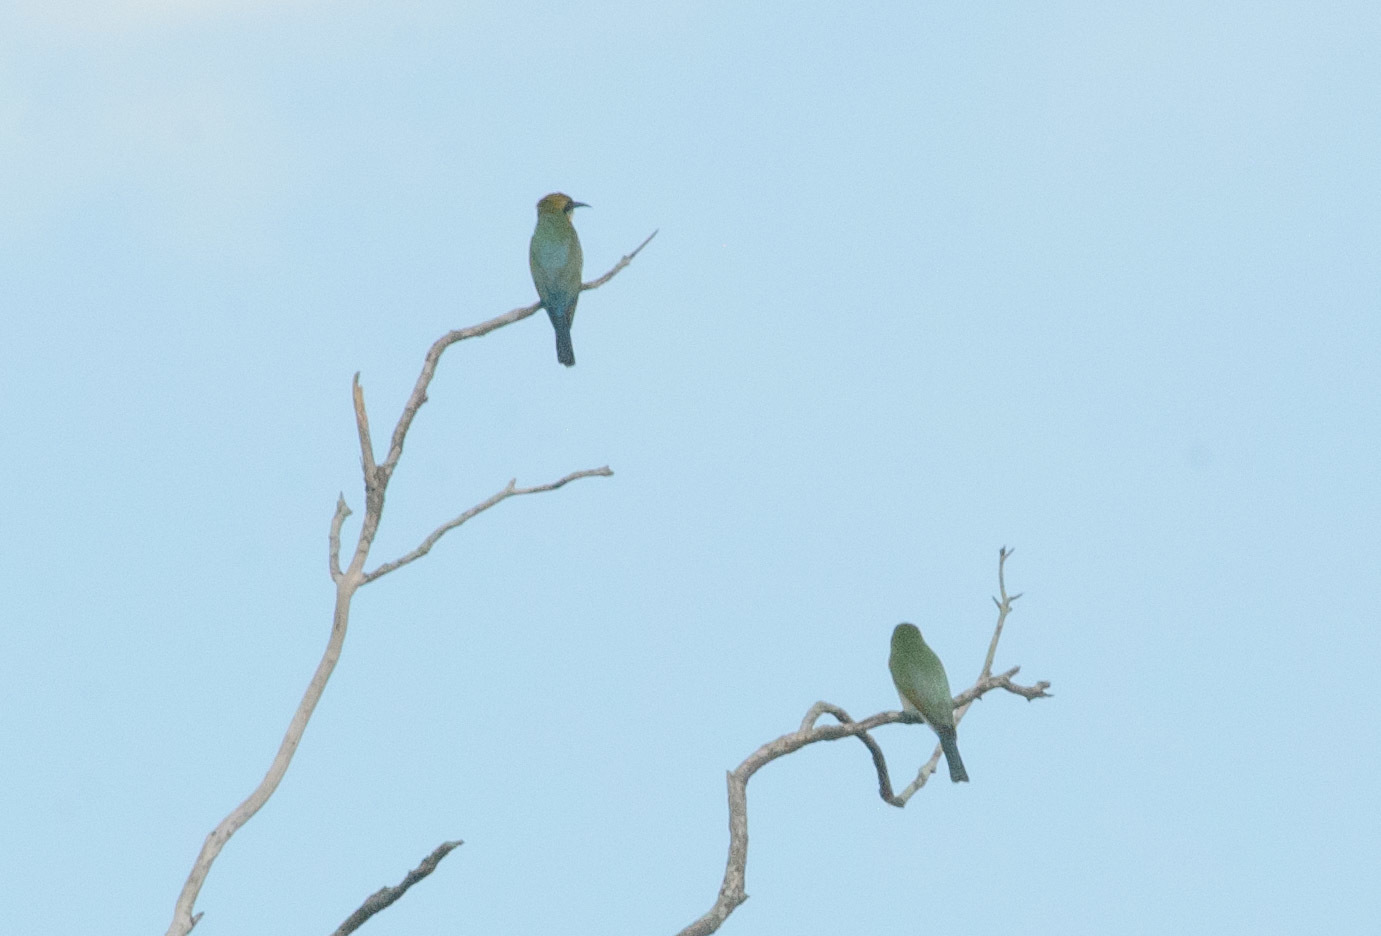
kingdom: Animalia
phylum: Chordata
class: Aves
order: Coraciiformes
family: Meropidae
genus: Merops
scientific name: Merops ornatus
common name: Rainbow bee-eater
